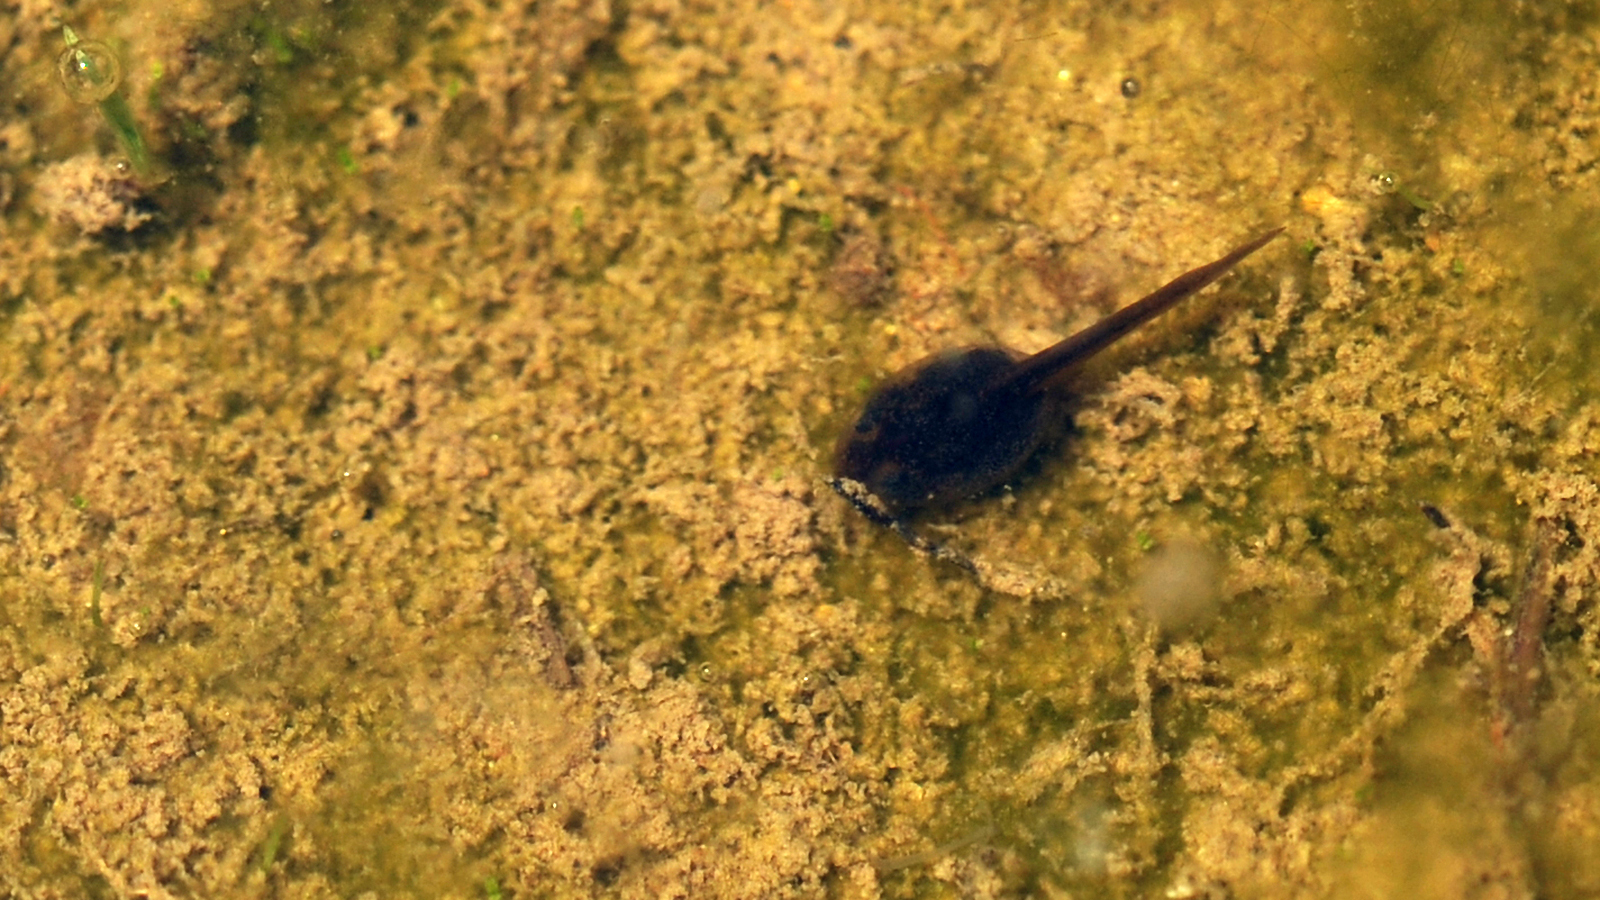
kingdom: Animalia
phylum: Chordata
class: Amphibia
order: Anura
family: Bombinatoridae
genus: Bombina
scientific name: Bombina orientalis
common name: Oriental firebelly toad
